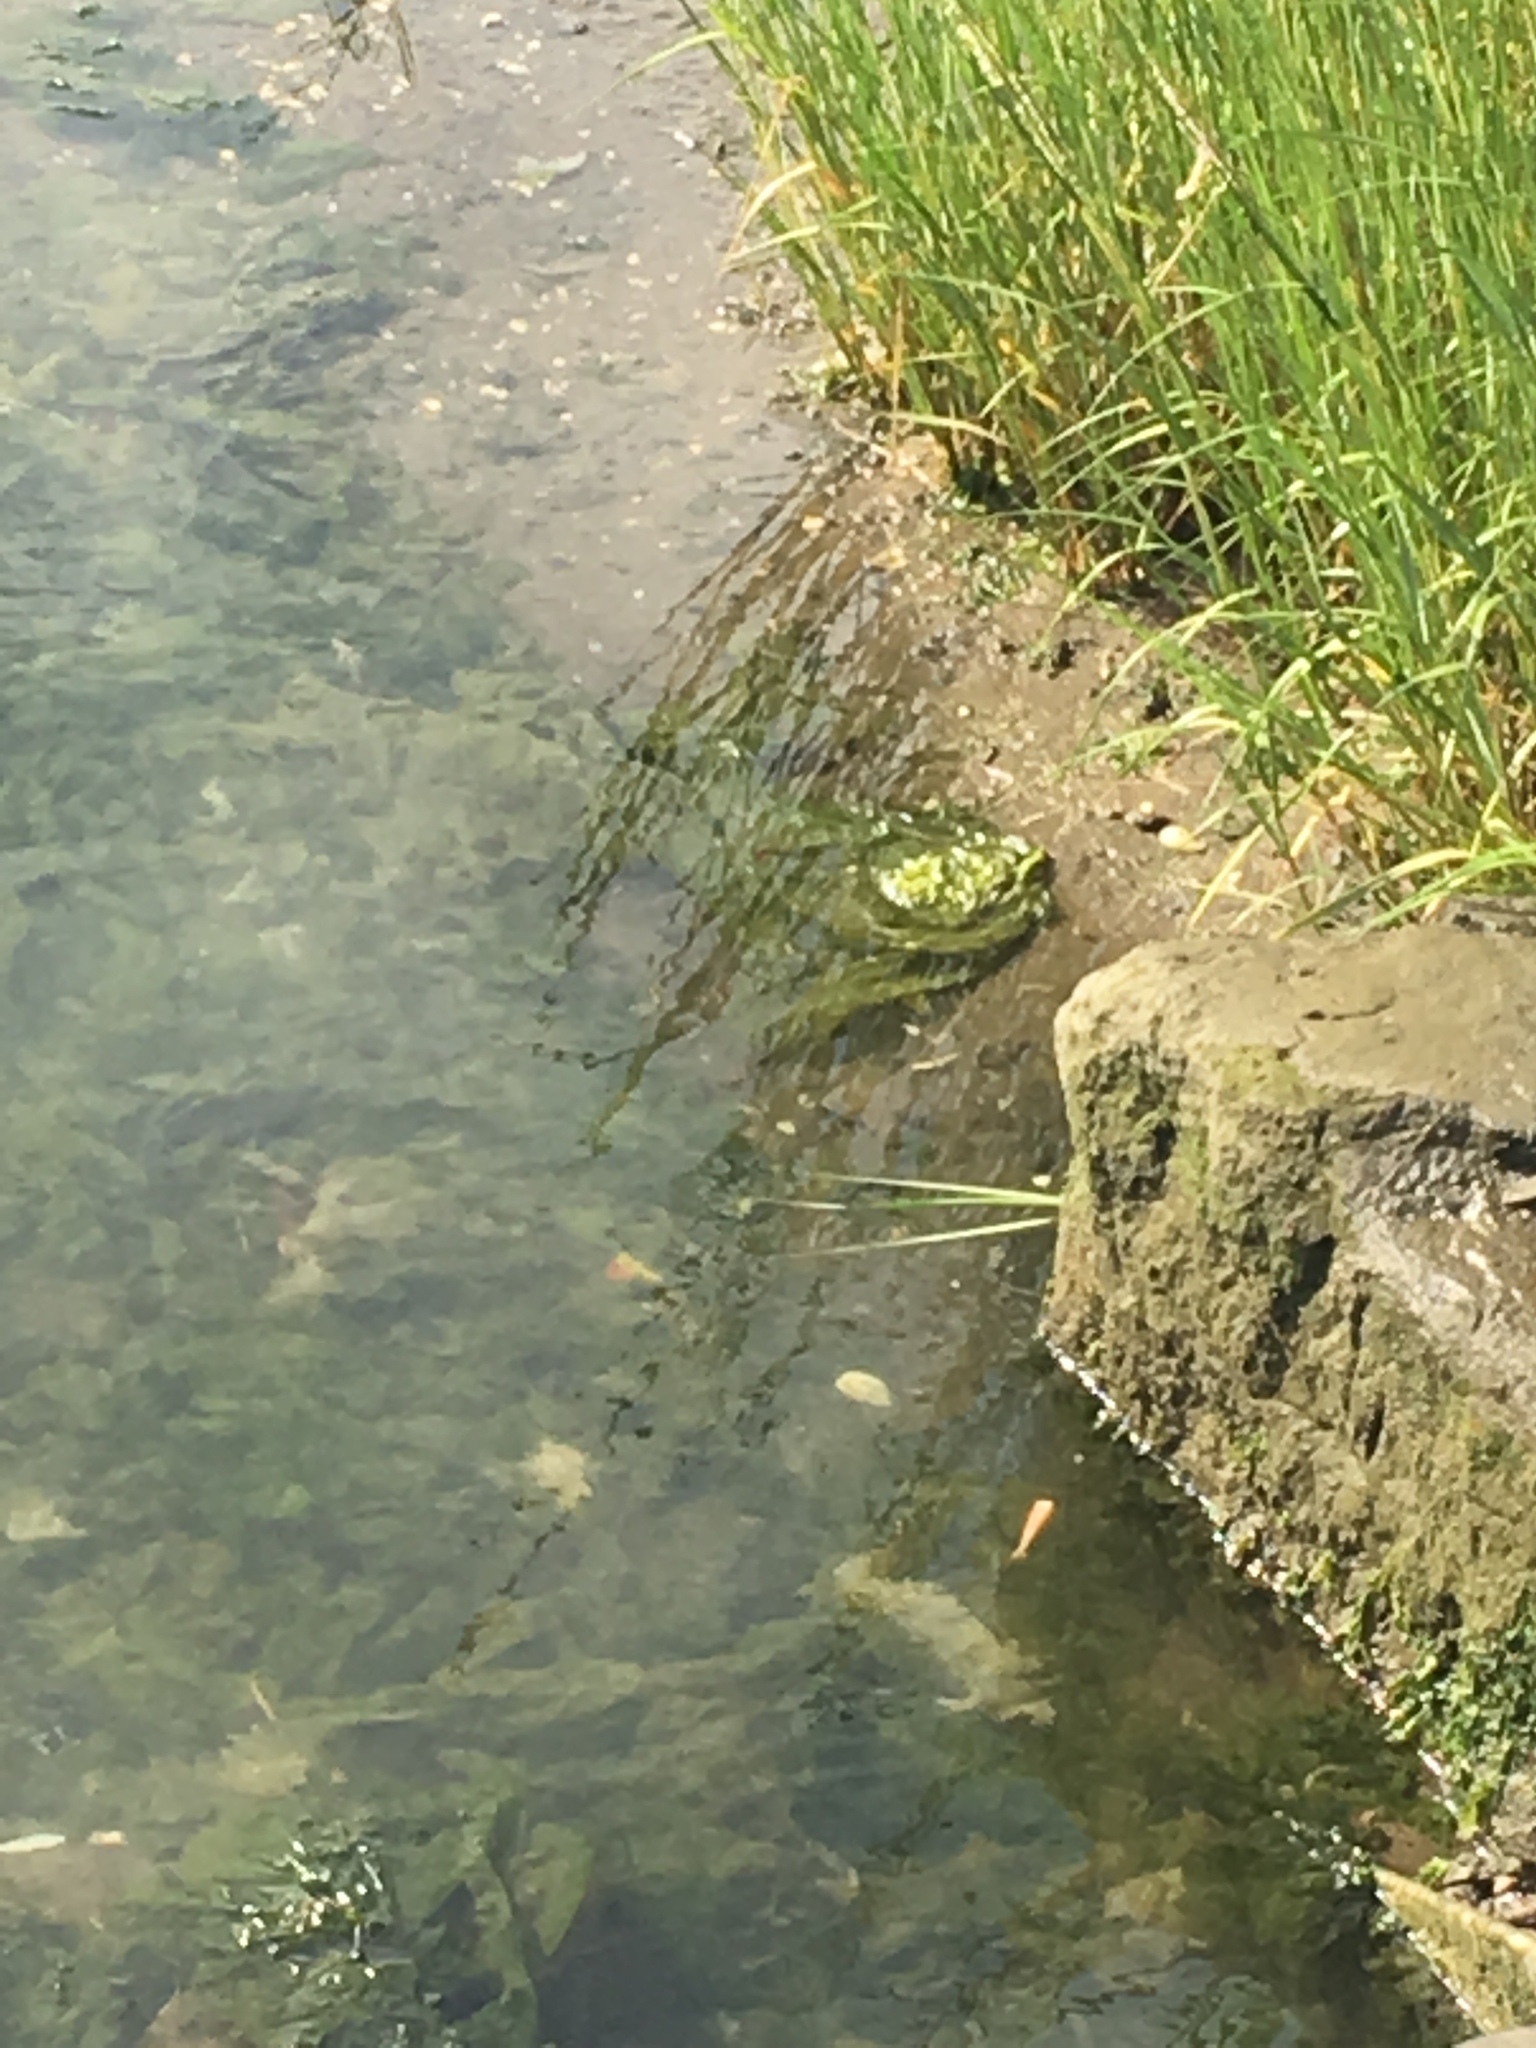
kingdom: Plantae
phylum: Chlorophyta
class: Ulvophyceae
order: Ulvales
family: Ulvaceae
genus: Ulva
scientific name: Ulva lactuca
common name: Sea lettuce
